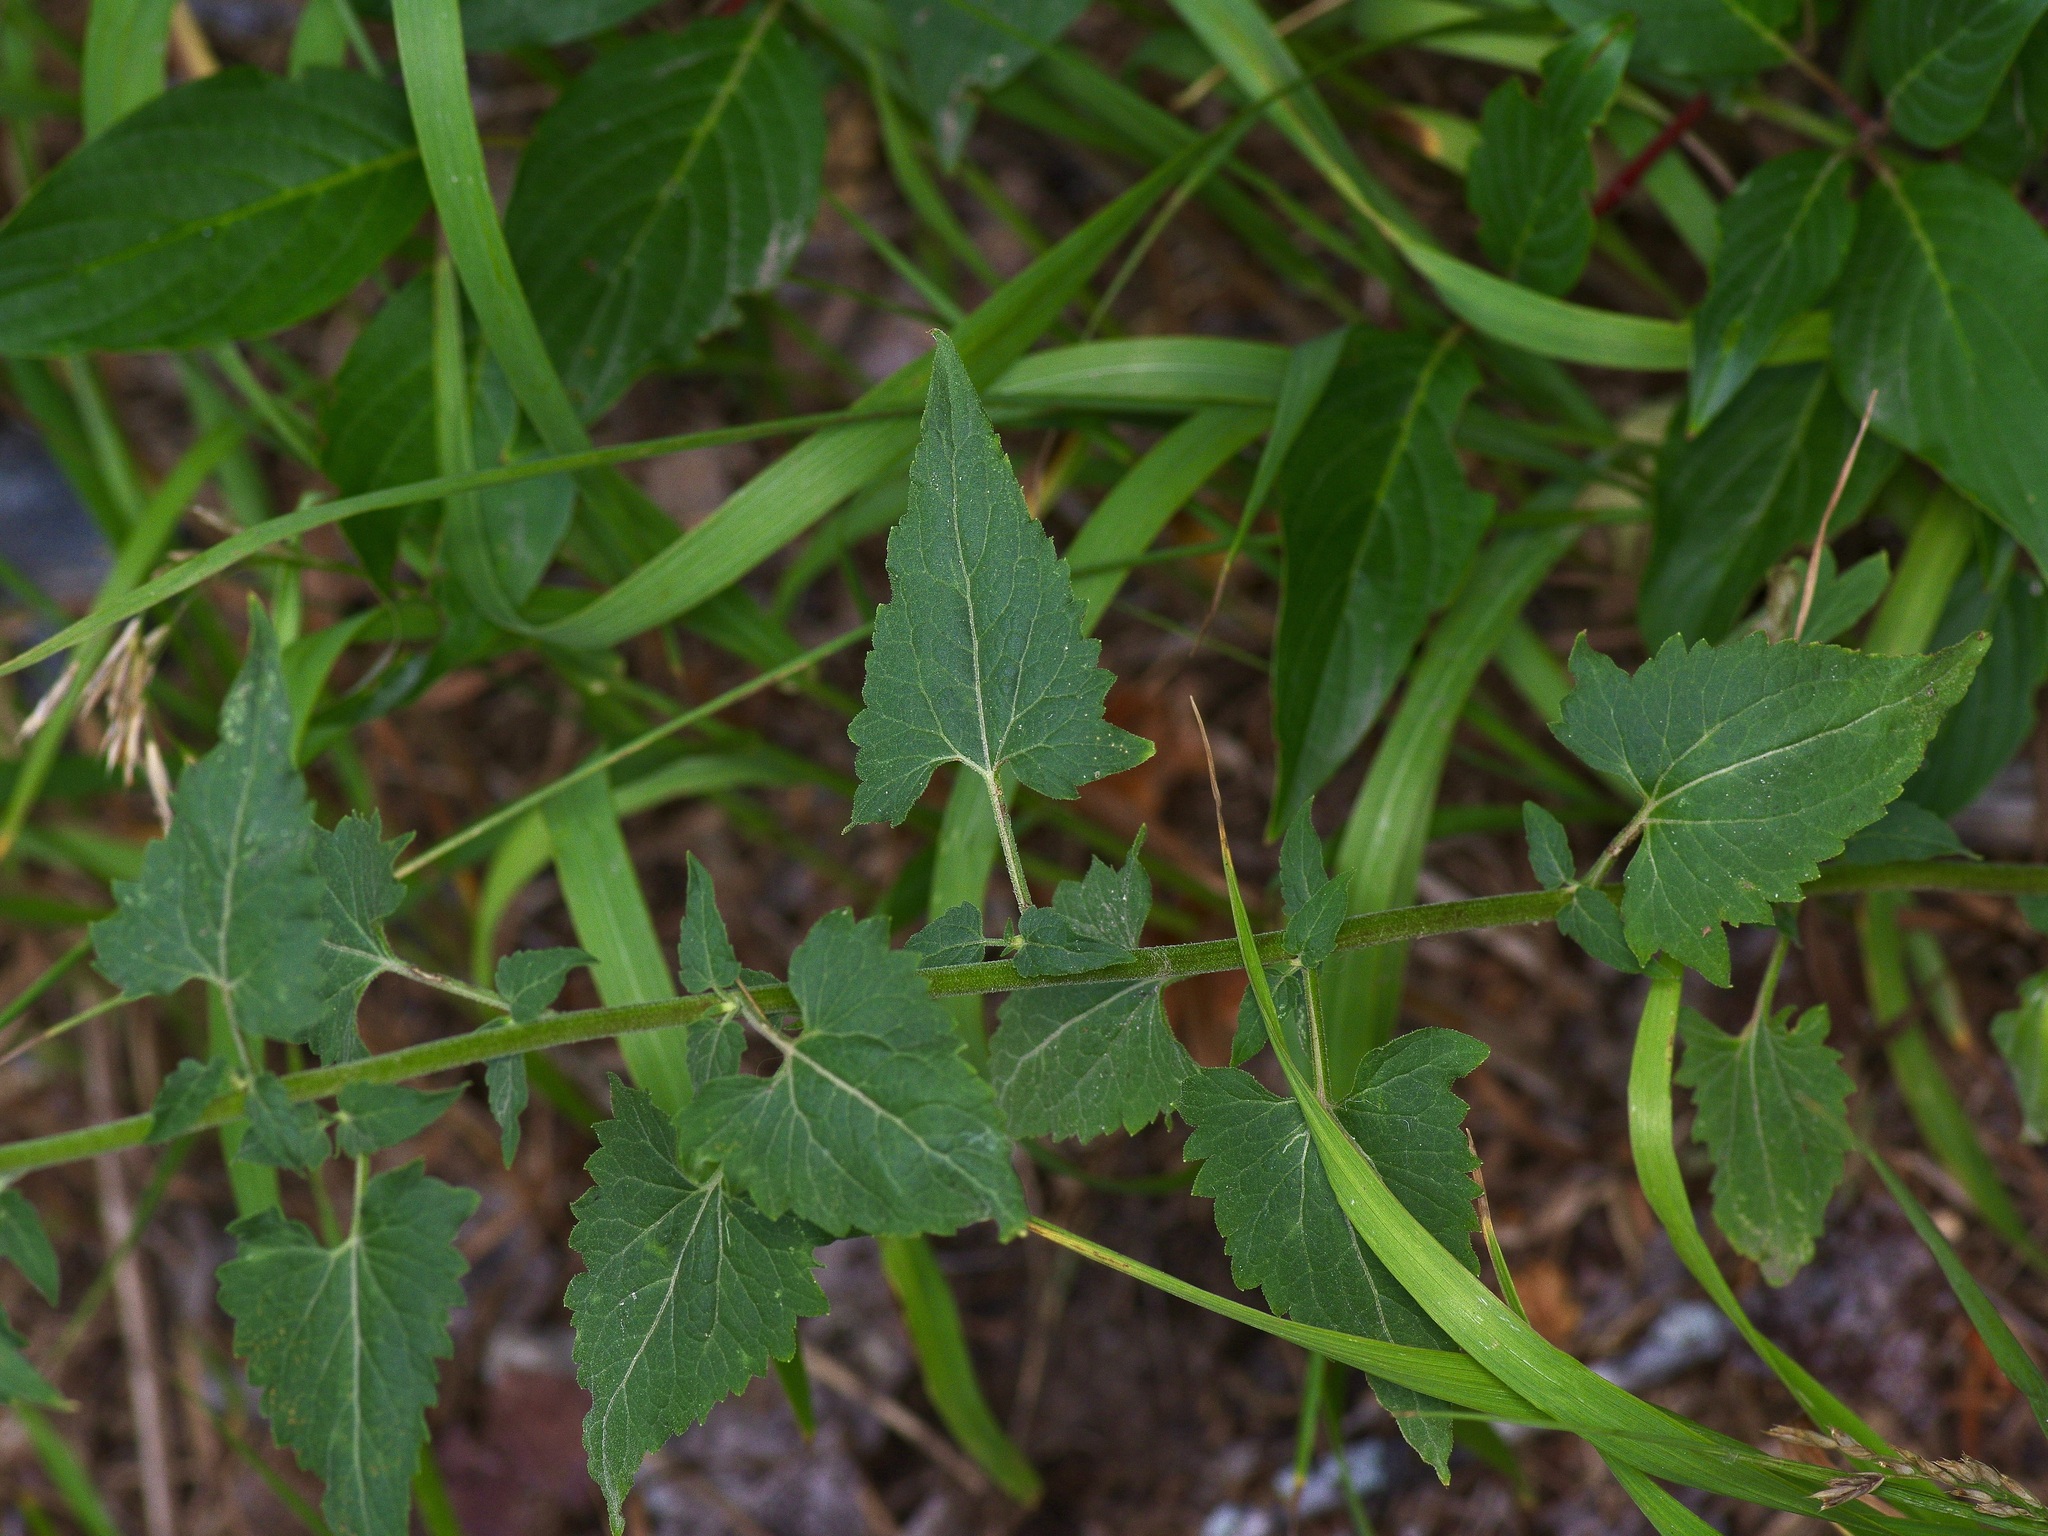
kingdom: Plantae
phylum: Tracheophyta
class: Magnoliopsida
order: Asterales
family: Asteraceae
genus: Brickellia
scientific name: Brickellia grandiflora
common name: Large-flowered brickellia
